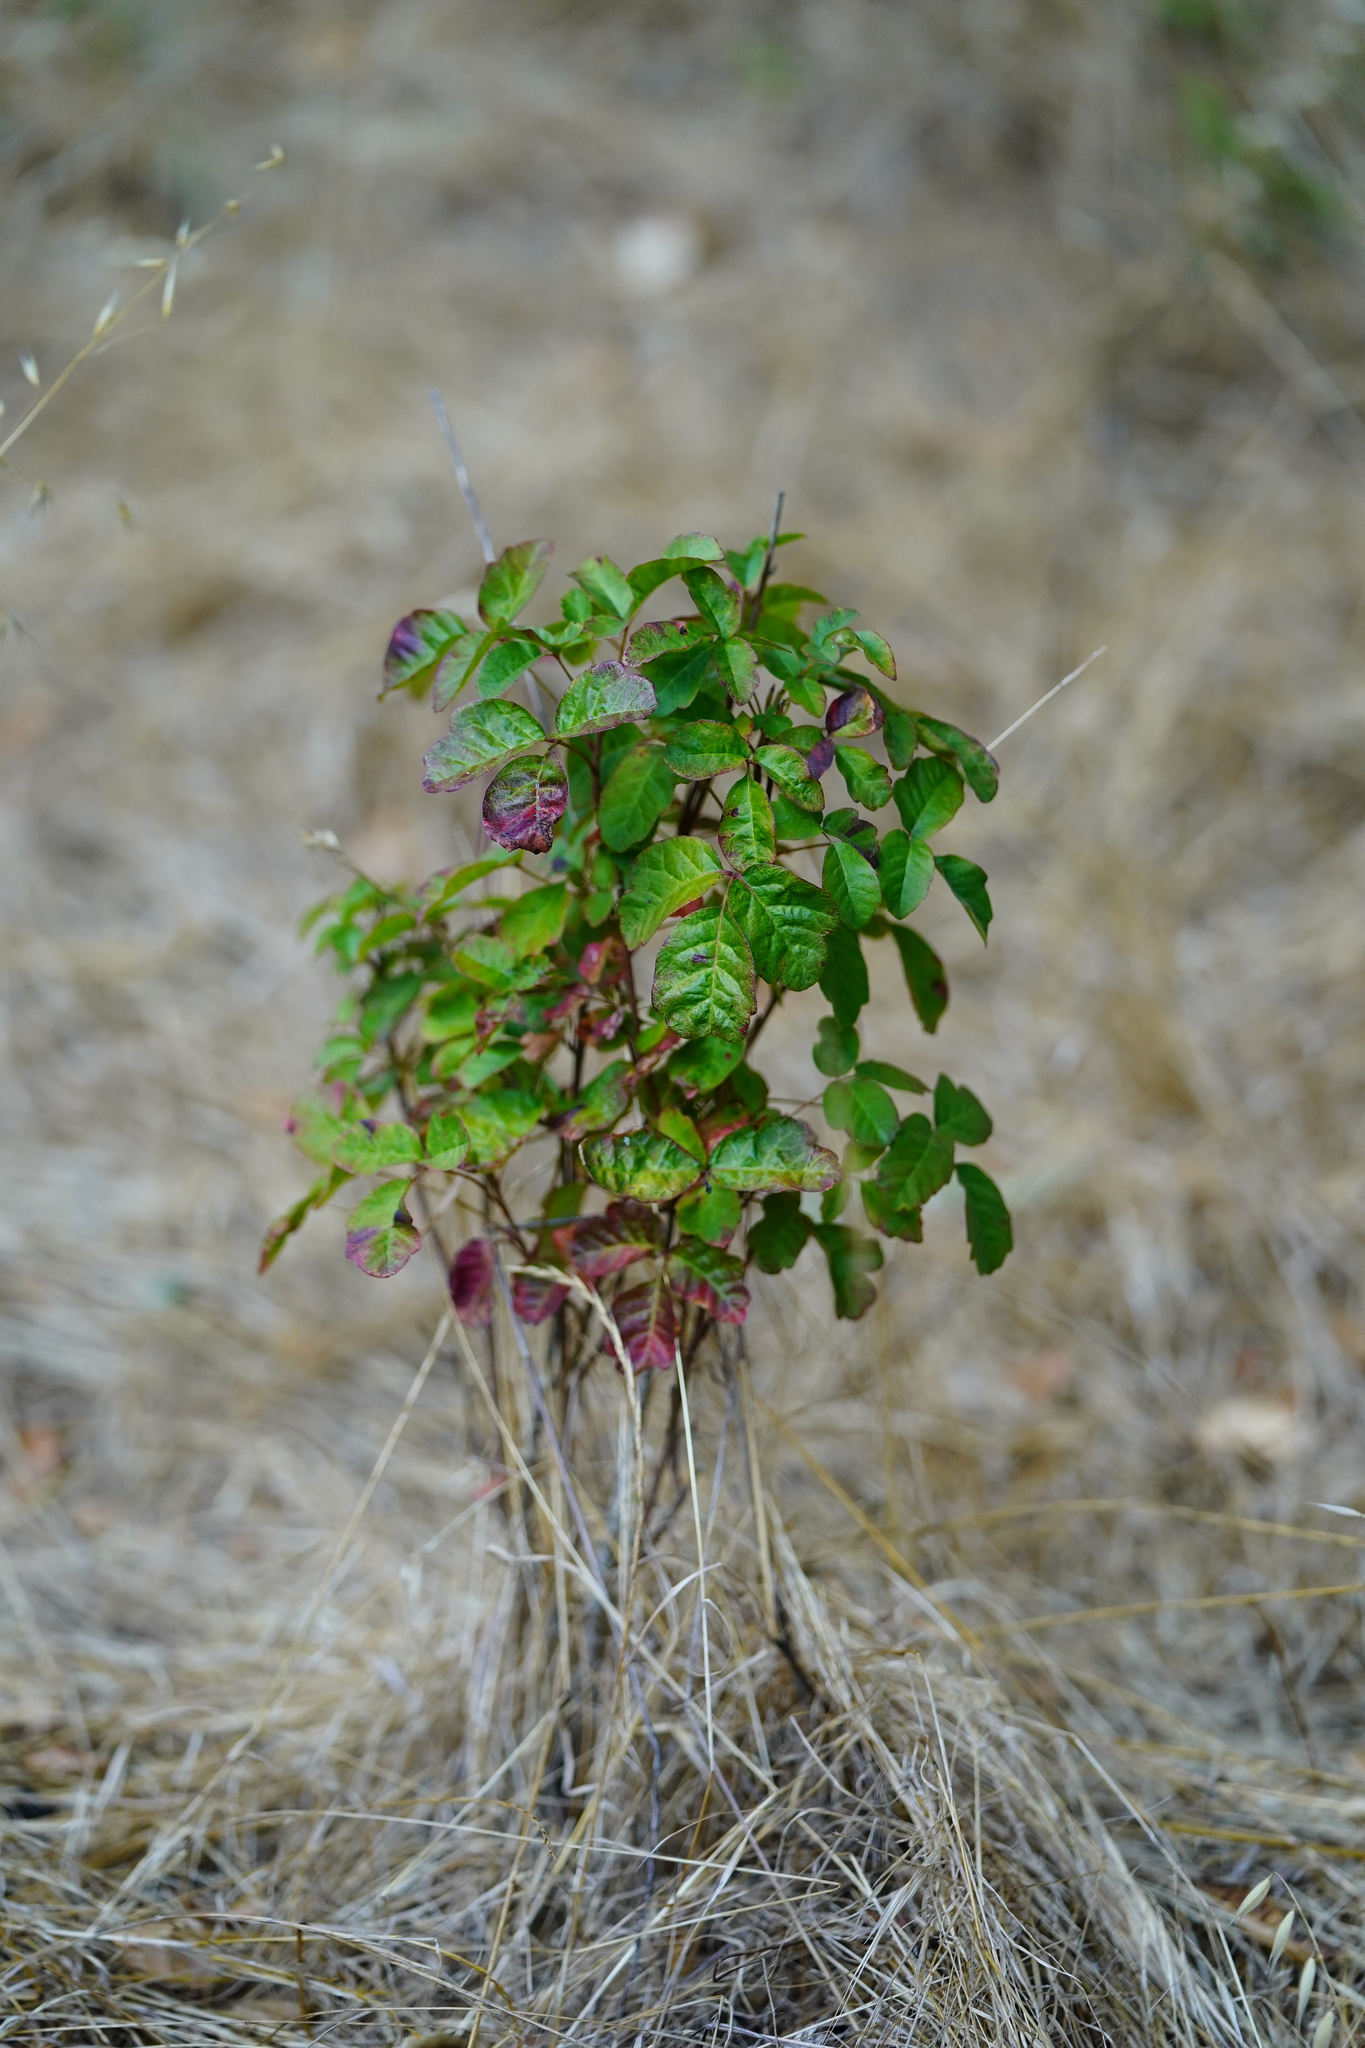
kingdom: Plantae
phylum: Tracheophyta
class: Magnoliopsida
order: Sapindales
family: Anacardiaceae
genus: Toxicodendron
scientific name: Toxicodendron diversilobum
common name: Pacific poison-oak
